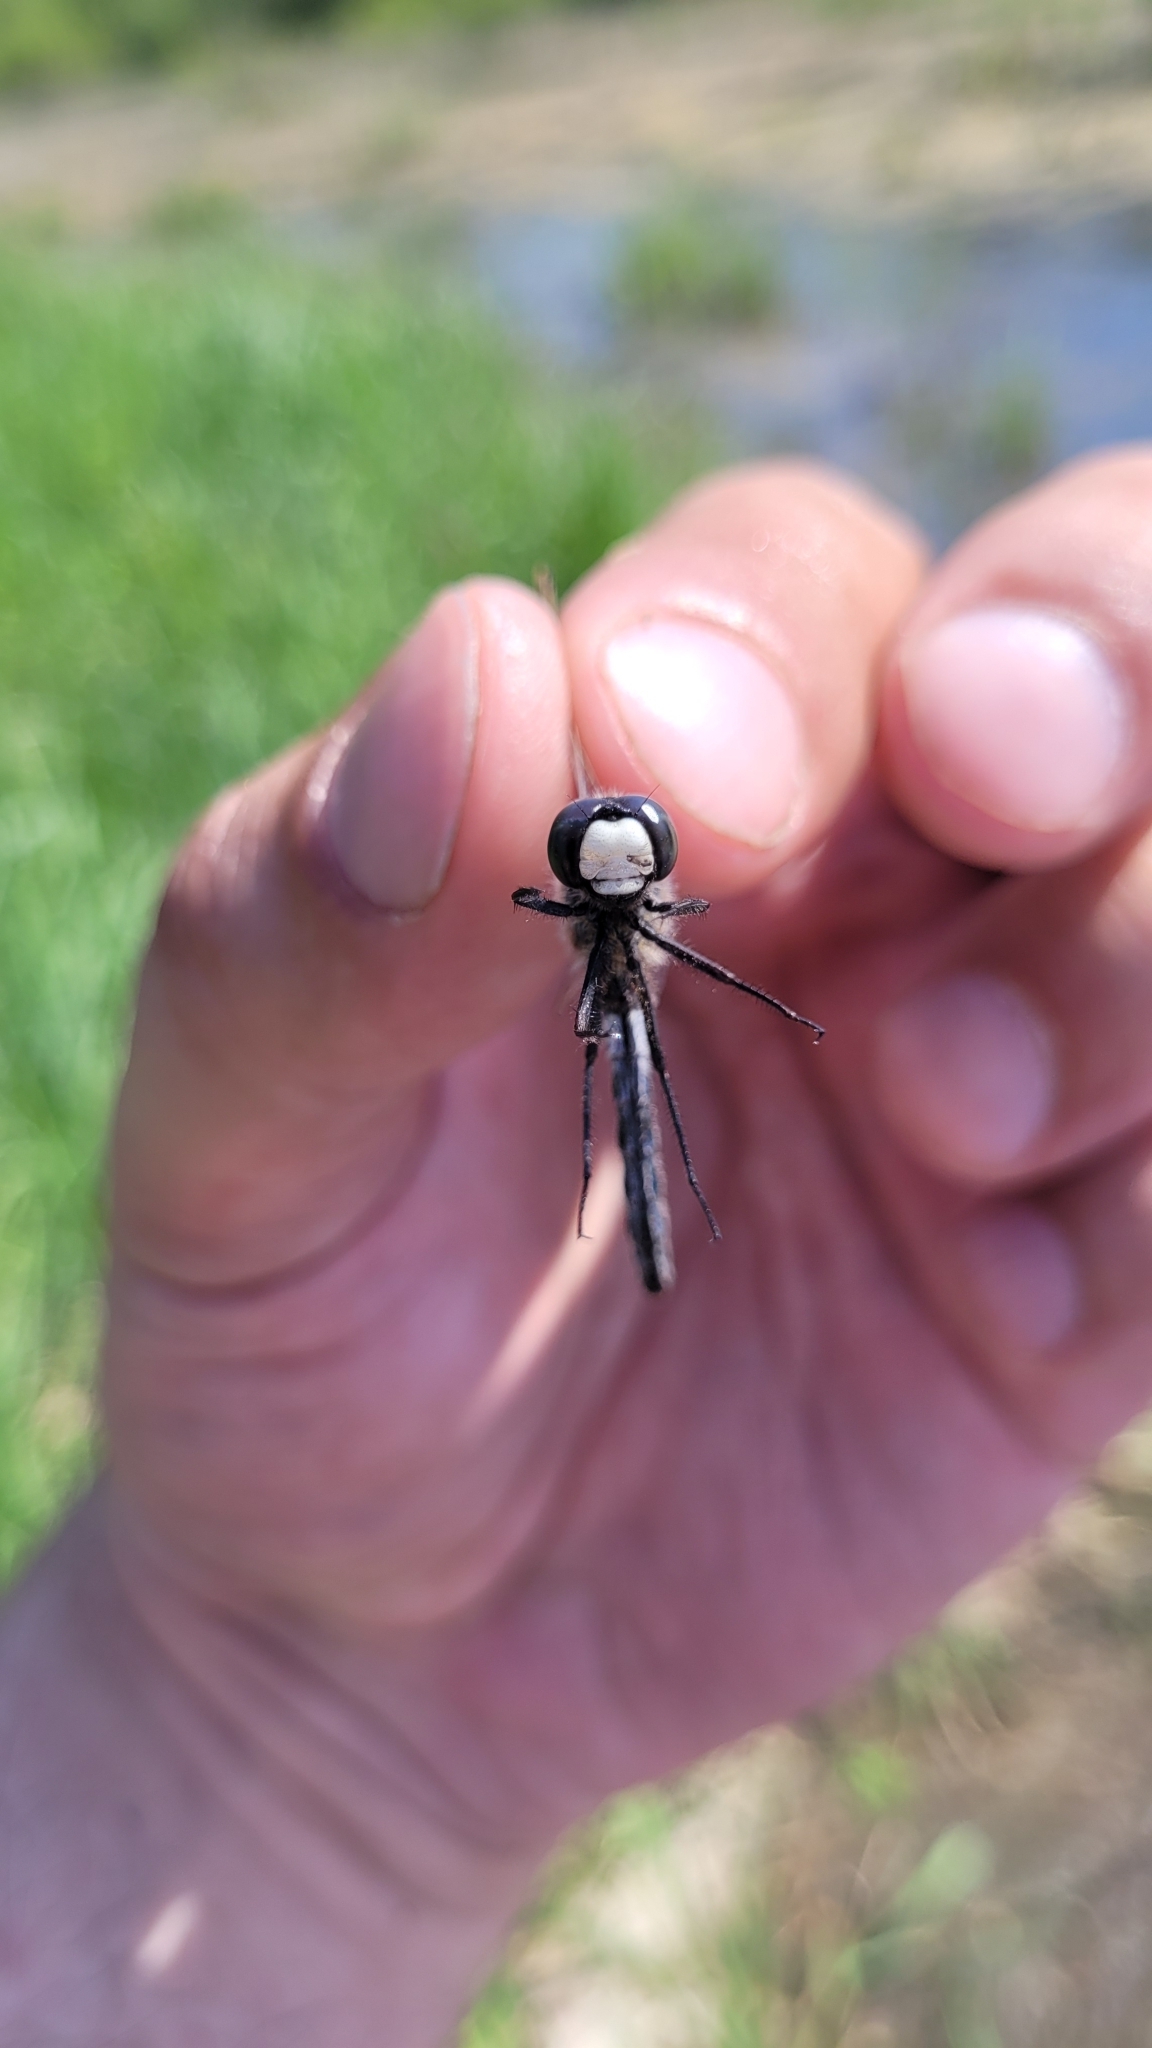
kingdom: Animalia
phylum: Arthropoda
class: Insecta
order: Odonata
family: Libellulidae
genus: Leucorrhinia
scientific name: Leucorrhinia rubicunda
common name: Ruby whiteface
